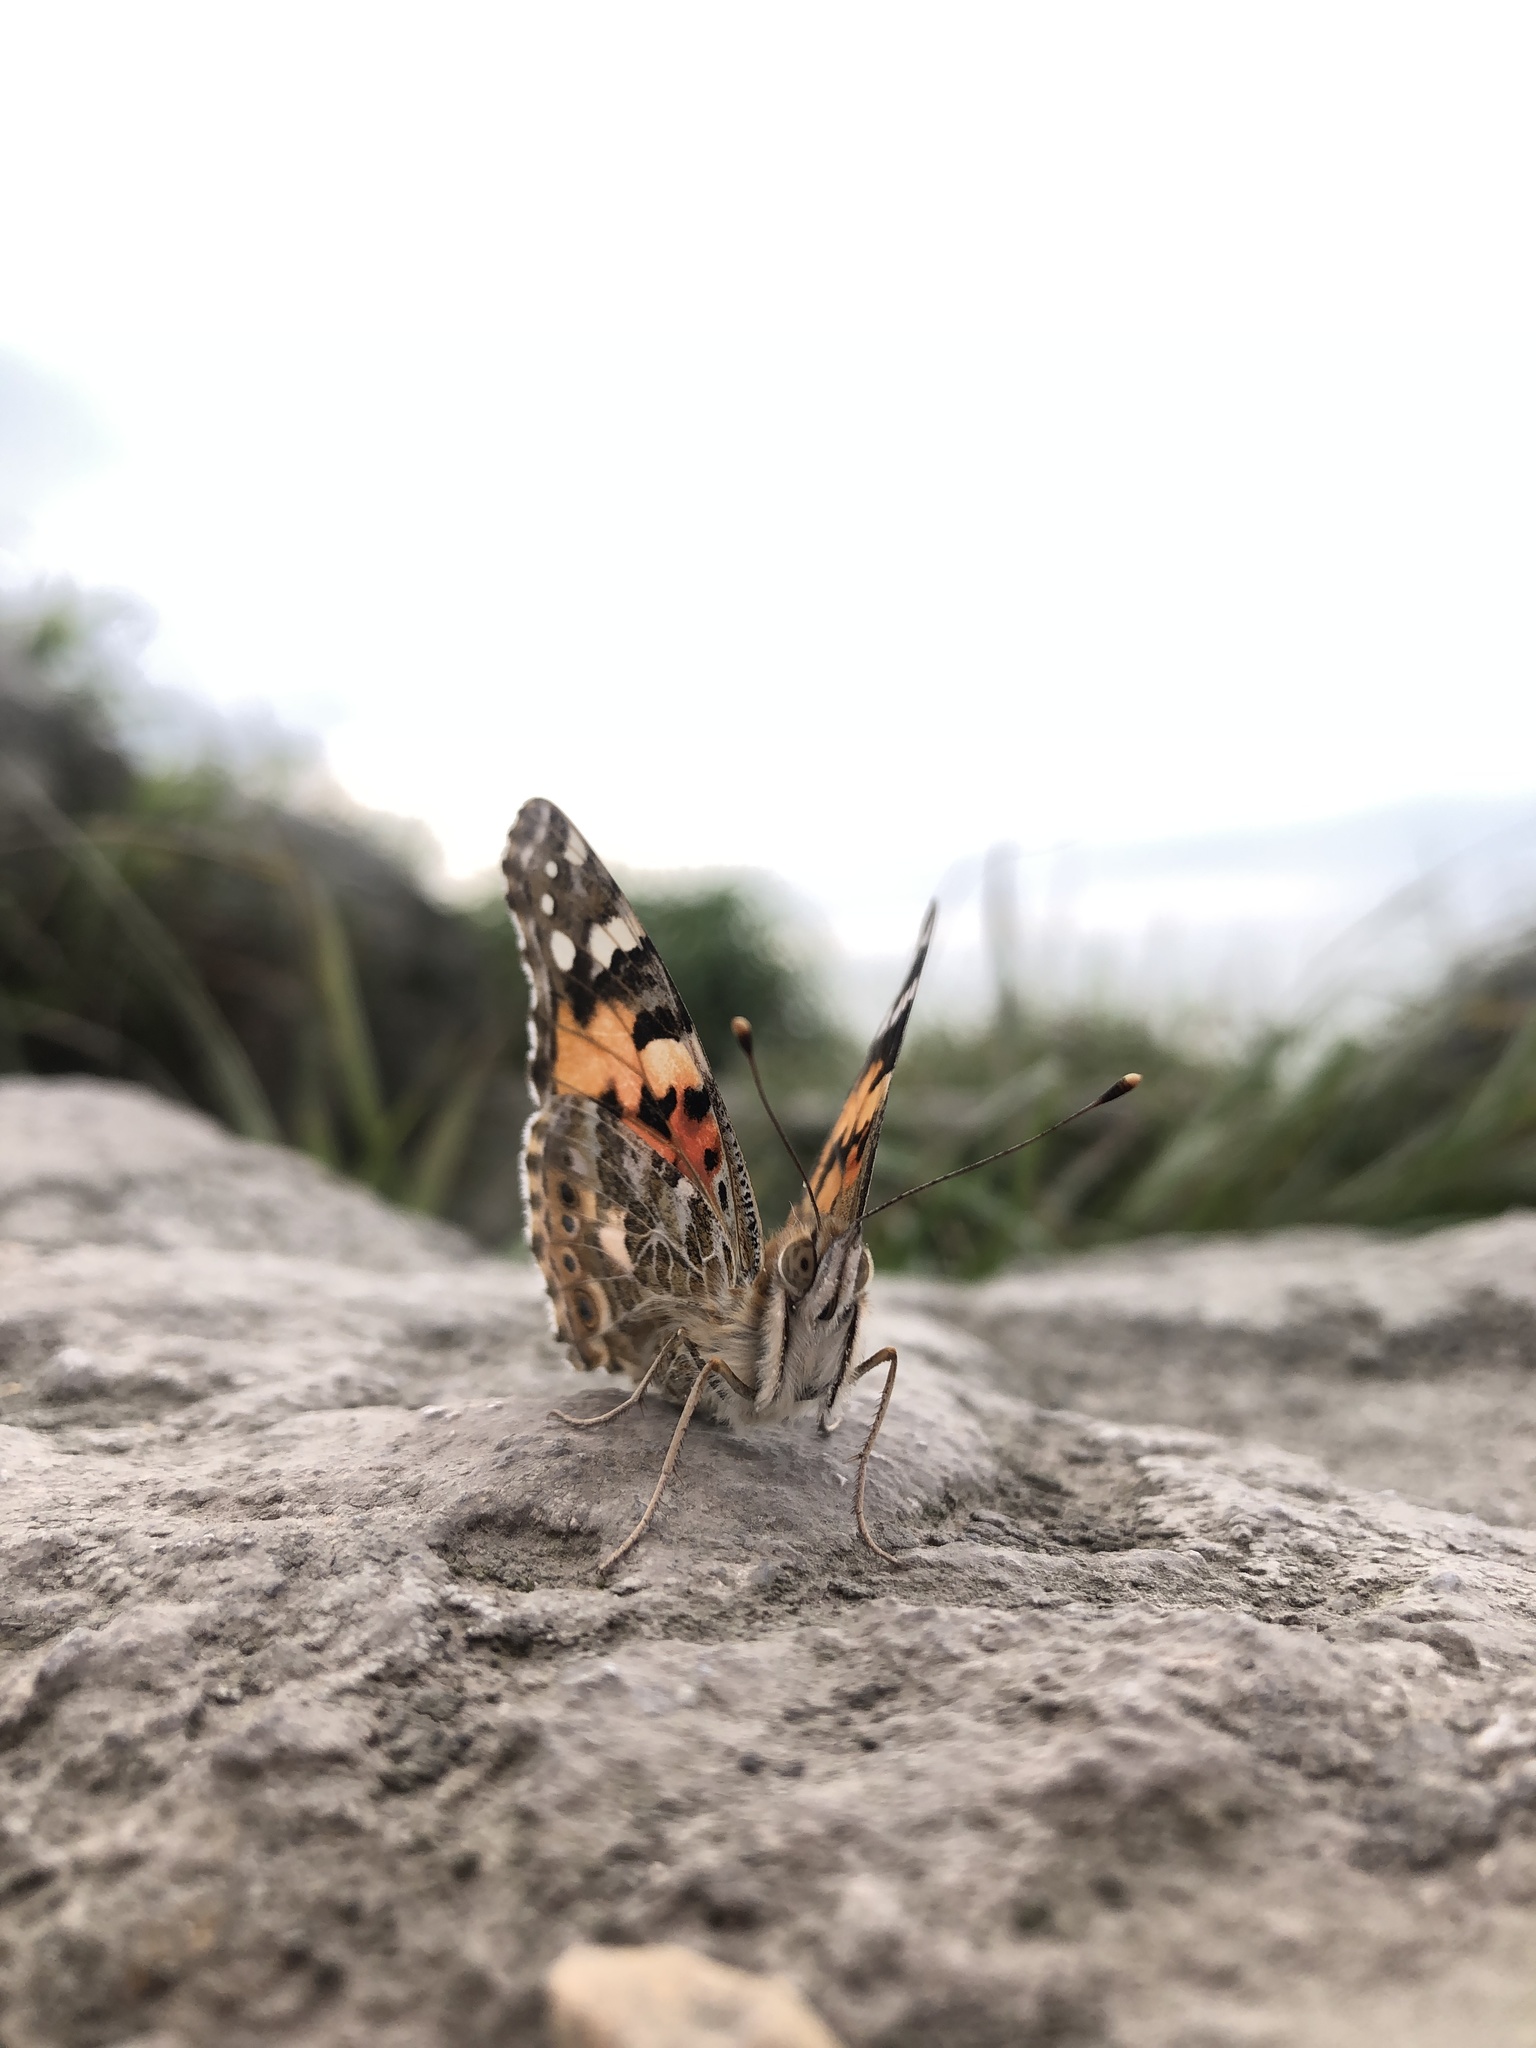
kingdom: Animalia
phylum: Arthropoda
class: Insecta
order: Lepidoptera
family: Nymphalidae
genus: Vanessa
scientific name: Vanessa cardui
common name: Painted lady
